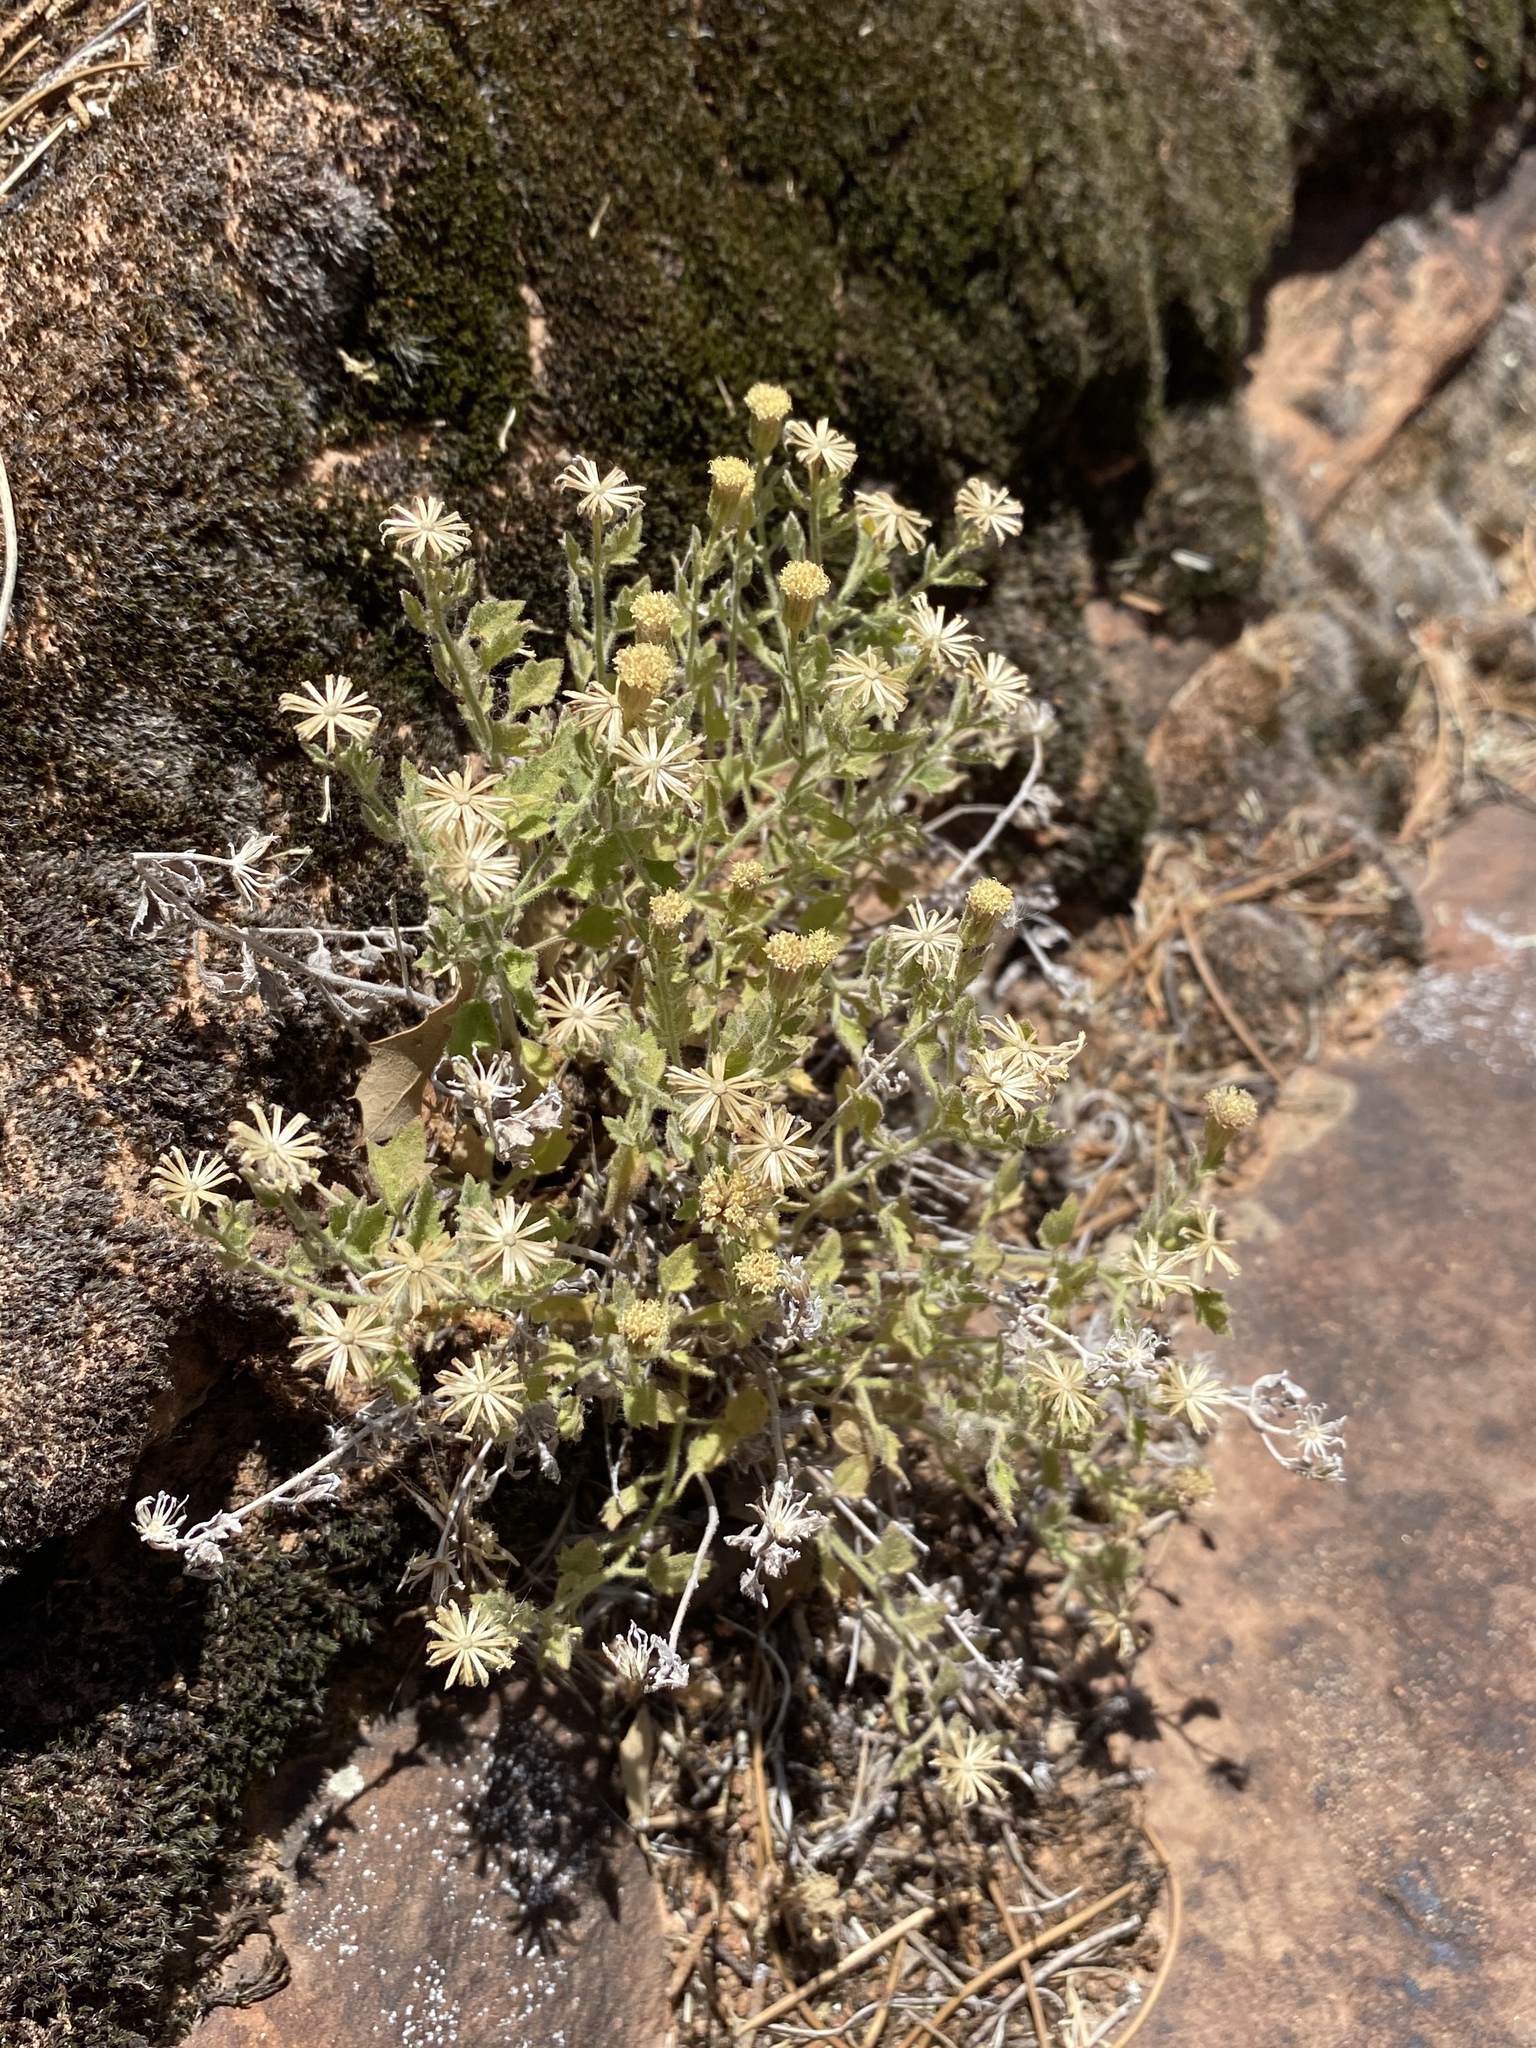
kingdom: Plantae
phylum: Tracheophyta
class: Magnoliopsida
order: Asterales
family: Asteraceae
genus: Laphamia
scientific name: Laphamia sanchezii
